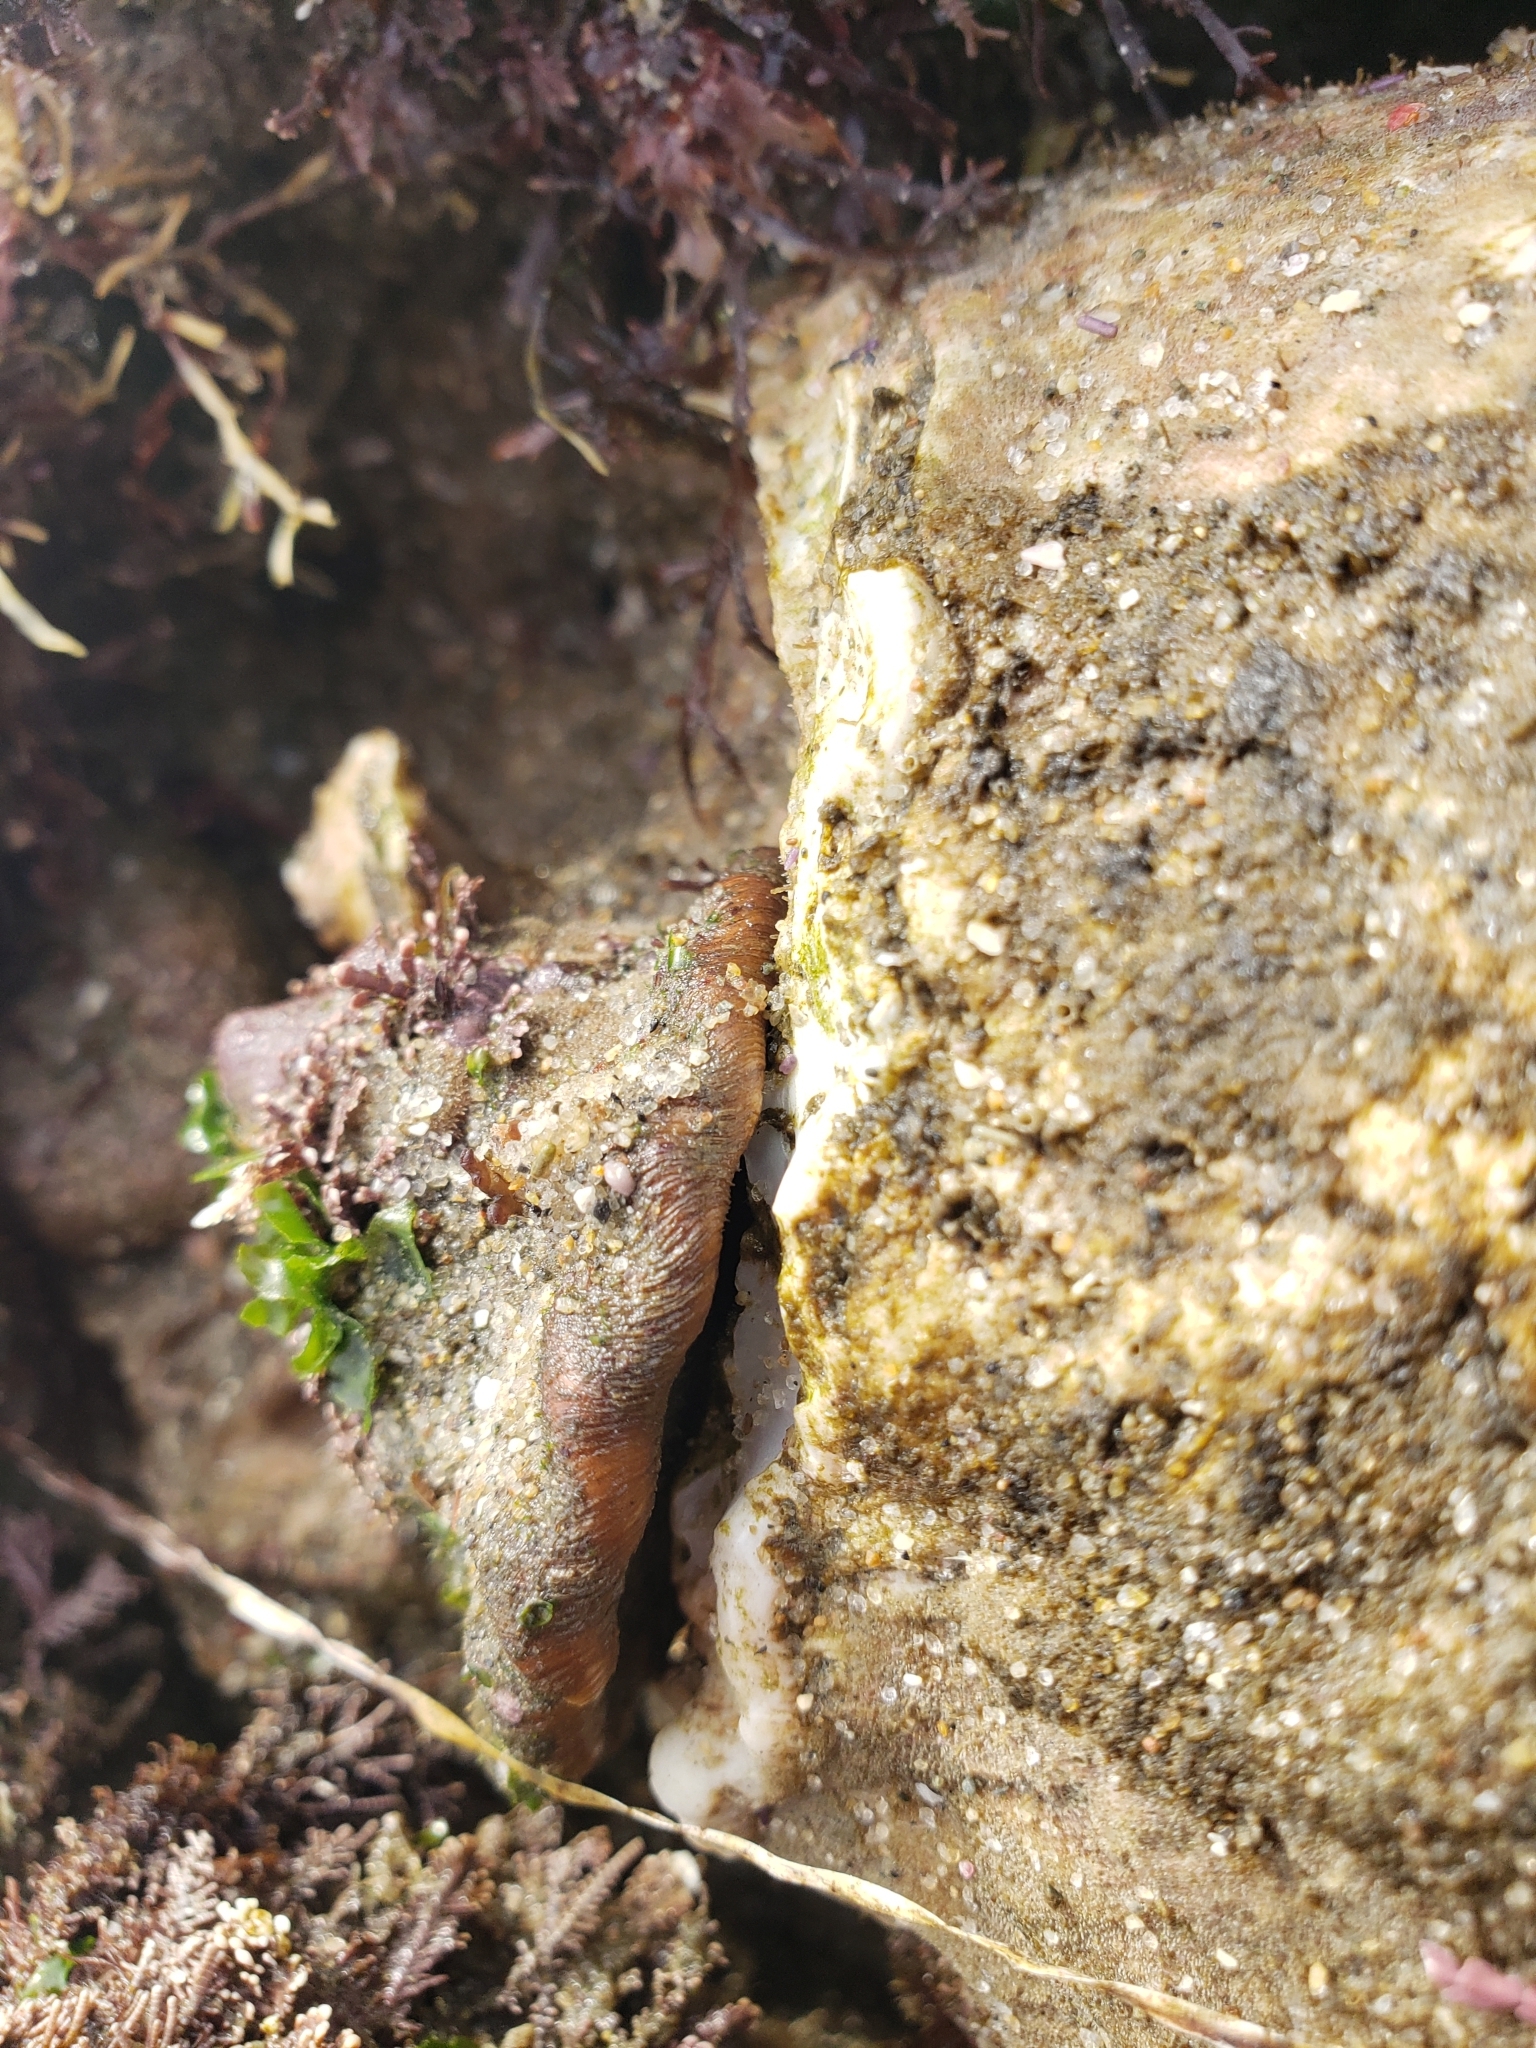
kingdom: Animalia
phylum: Mollusca
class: Gastropoda
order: Trochida
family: Turbinidae
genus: Megastraea
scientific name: Megastraea undosa
